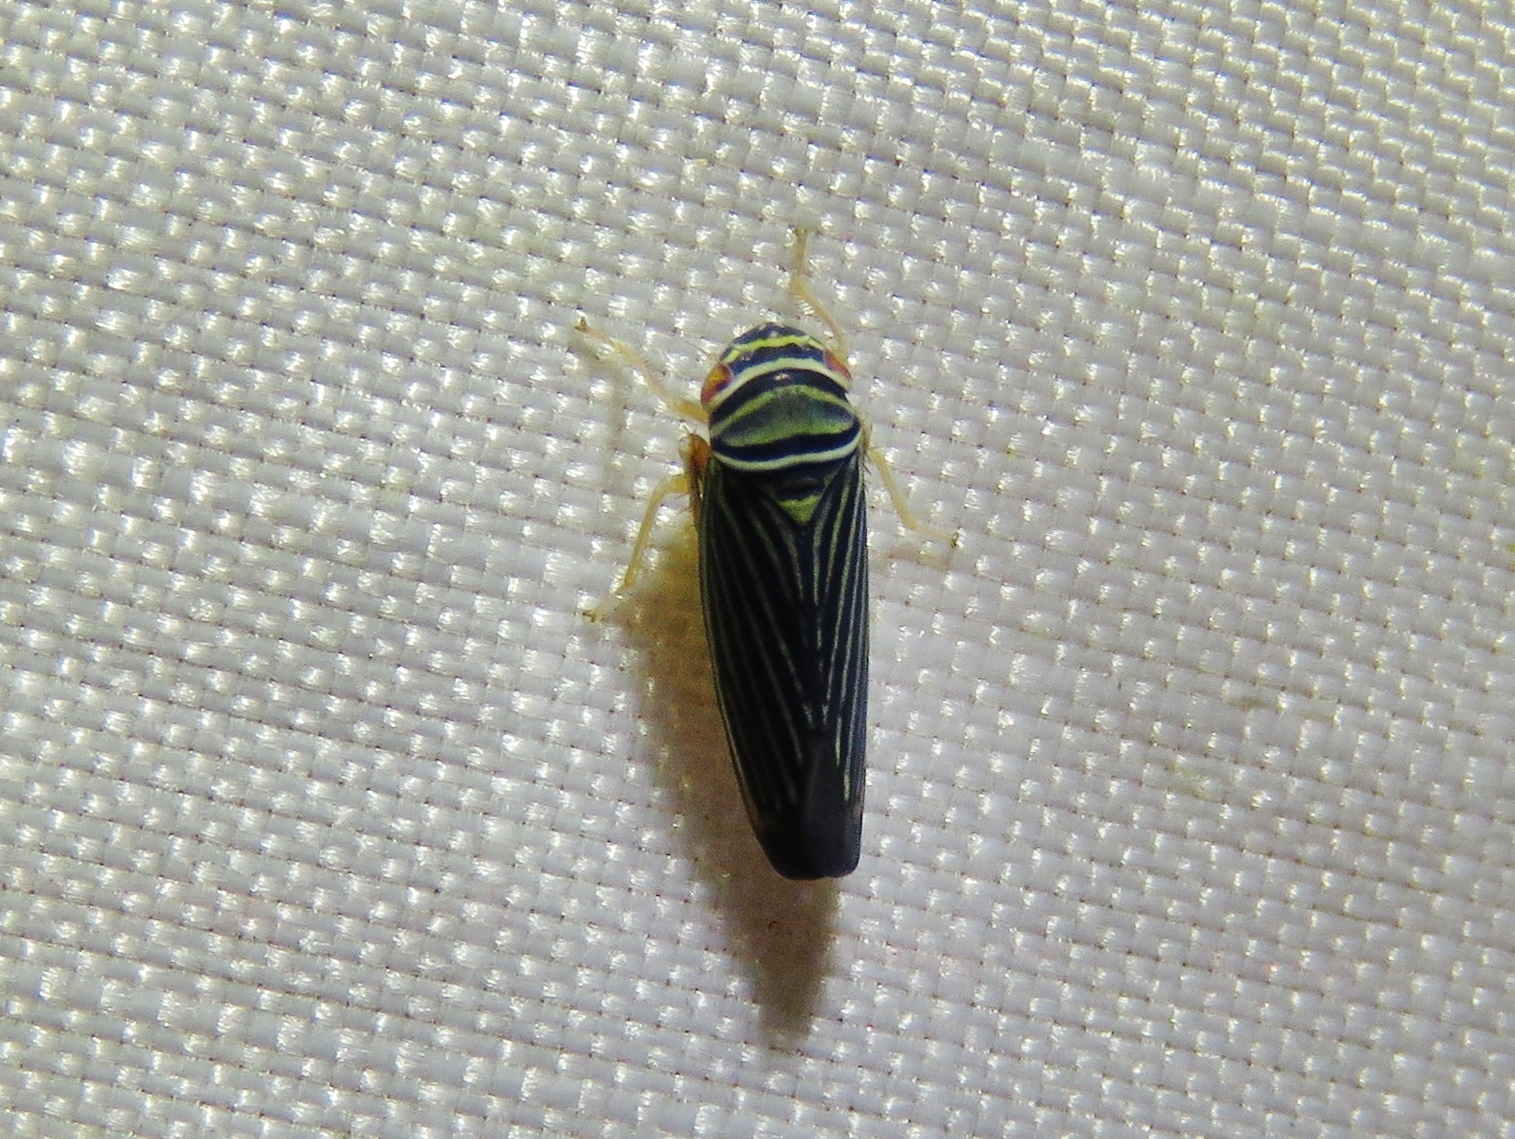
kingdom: Animalia
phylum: Arthropoda
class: Insecta
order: Hemiptera
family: Cicadellidae
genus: Tylozygus
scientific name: Tylozygus bifidus
